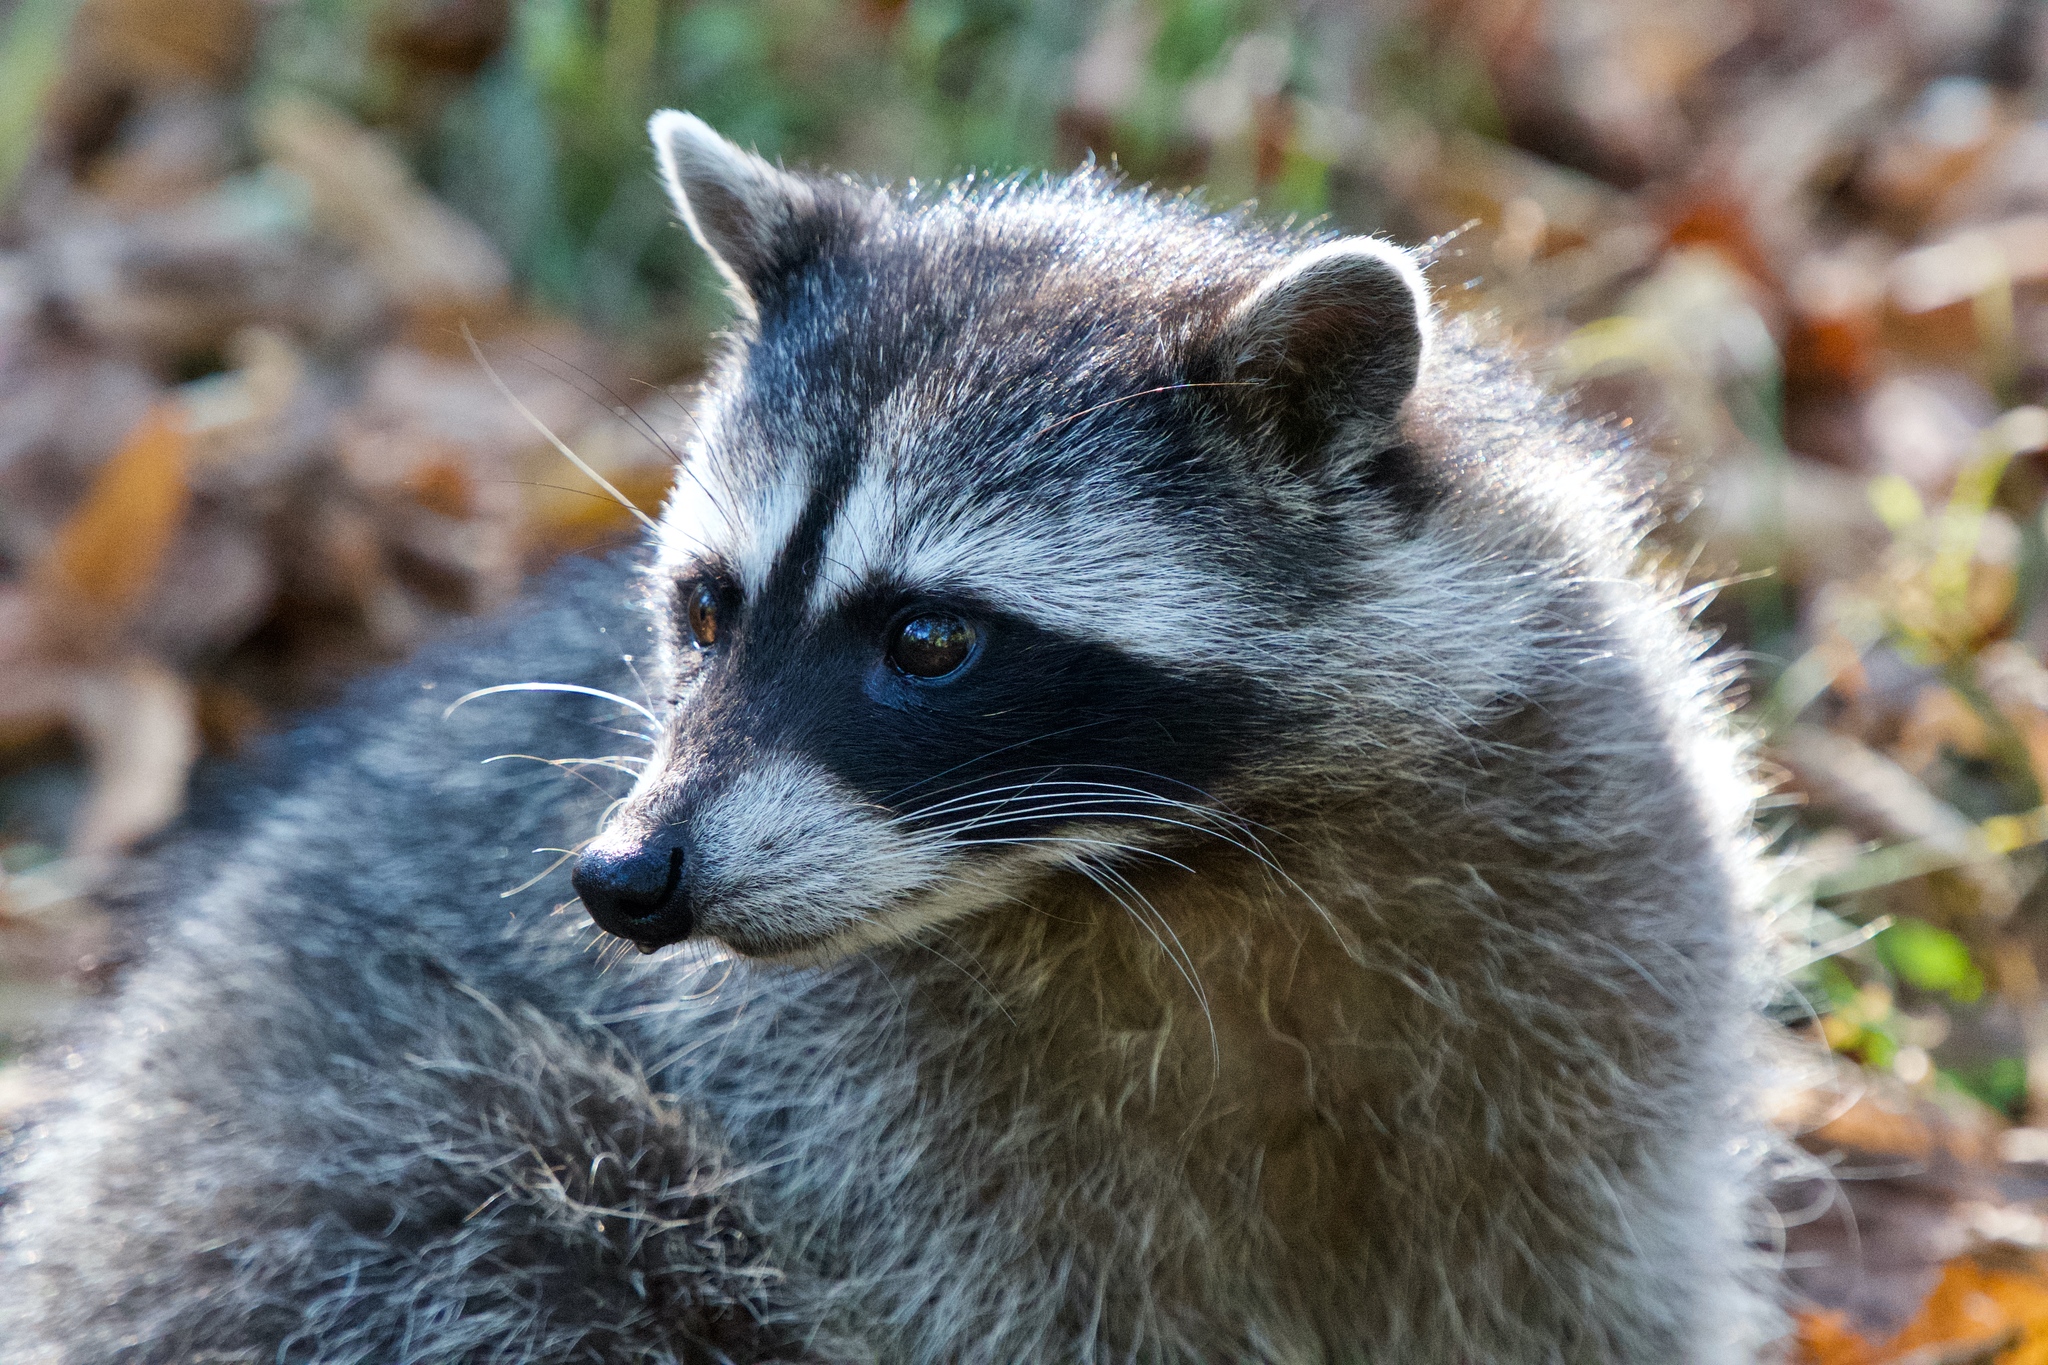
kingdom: Animalia
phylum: Chordata
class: Mammalia
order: Carnivora
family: Procyonidae
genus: Procyon
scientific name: Procyon lotor
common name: Raccoon
